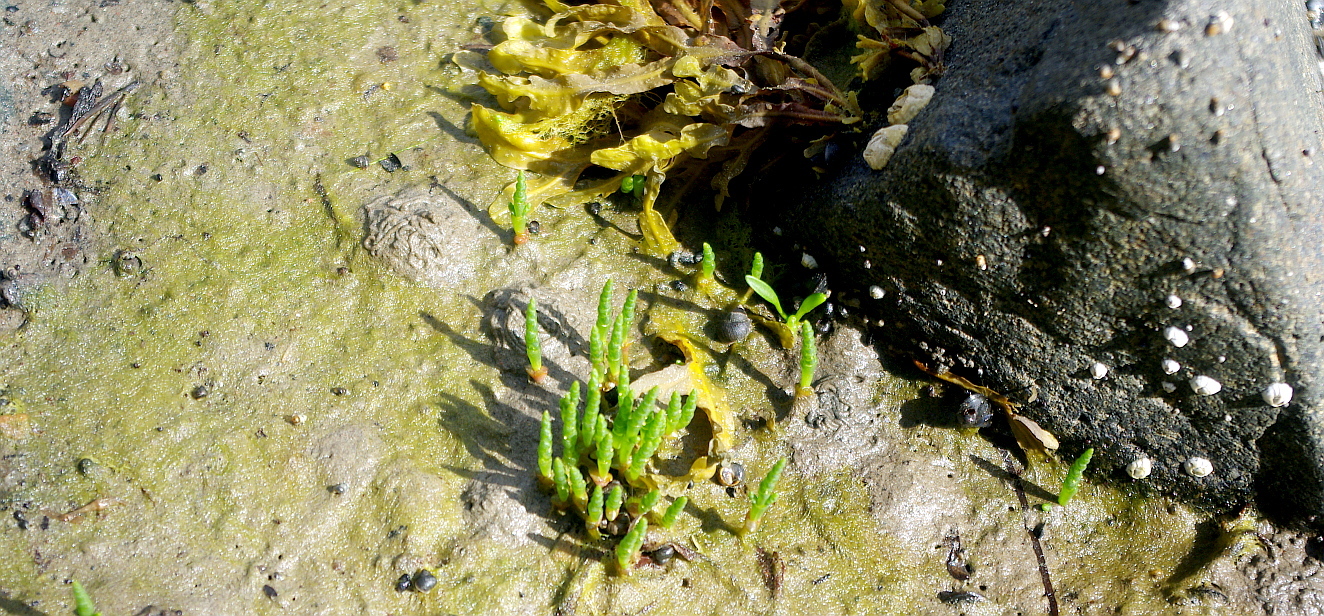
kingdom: Plantae
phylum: Tracheophyta
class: Magnoliopsida
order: Caryophyllales
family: Amaranthaceae
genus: Salicornia
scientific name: Salicornia europaea
